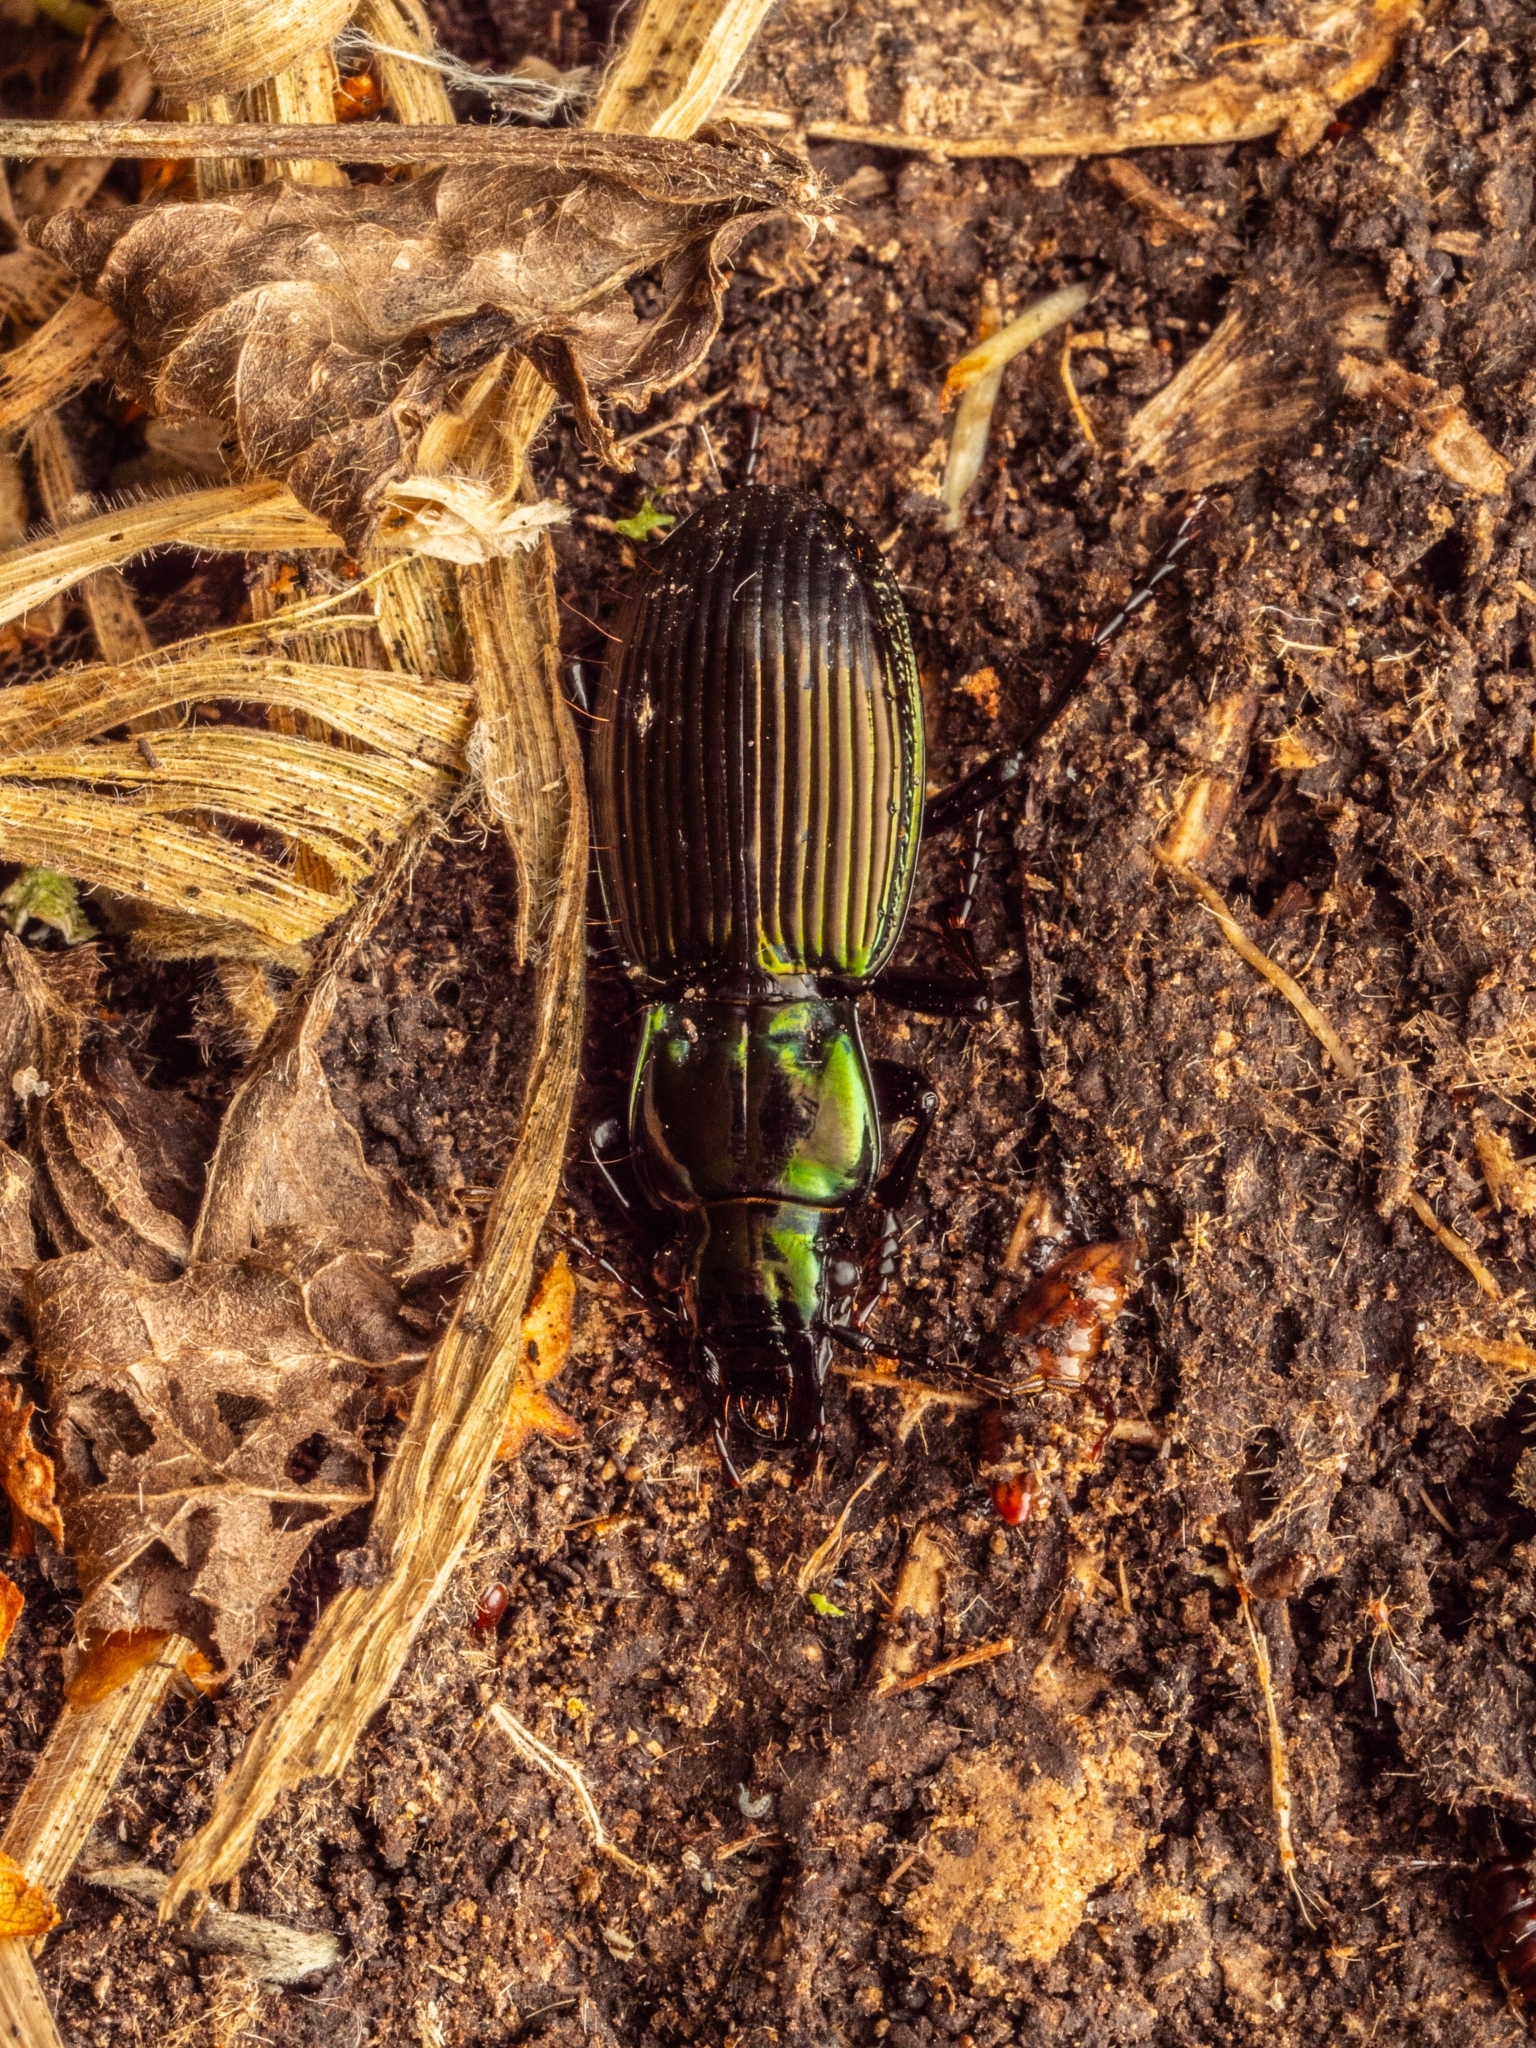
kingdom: Animalia
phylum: Arthropoda
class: Insecta
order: Coleoptera
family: Carabidae
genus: Megadromus
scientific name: Megadromus capito
